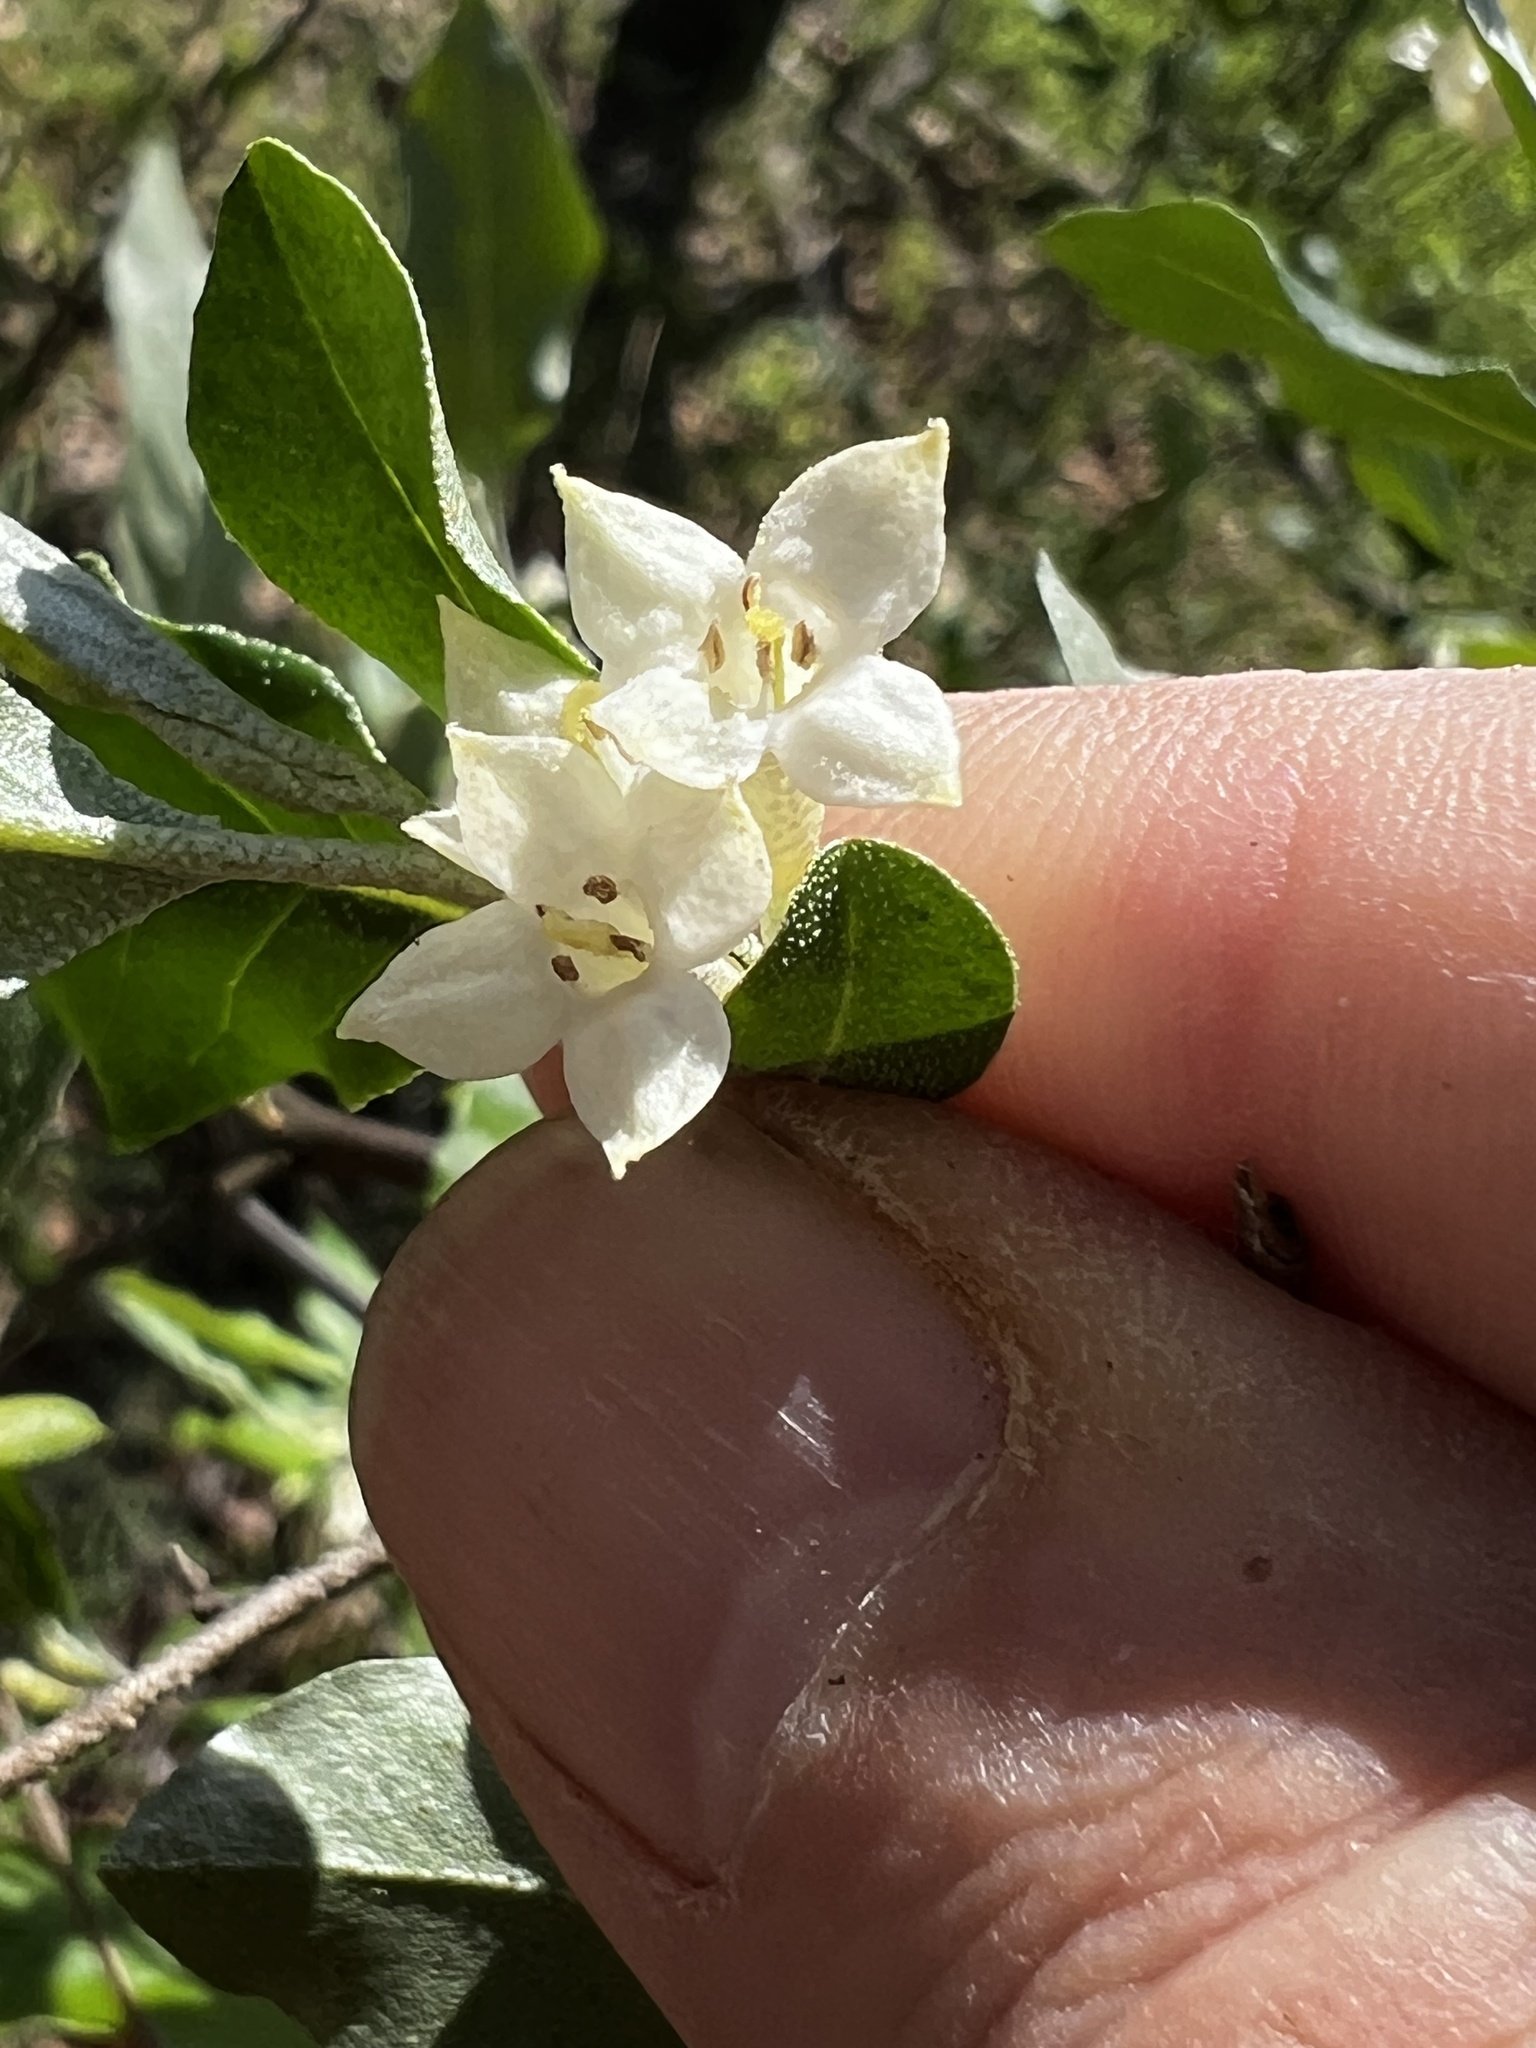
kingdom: Plantae
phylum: Tracheophyta
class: Magnoliopsida
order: Rosales
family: Elaeagnaceae
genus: Elaeagnus
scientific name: Elaeagnus umbellata
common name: Autumn olive
